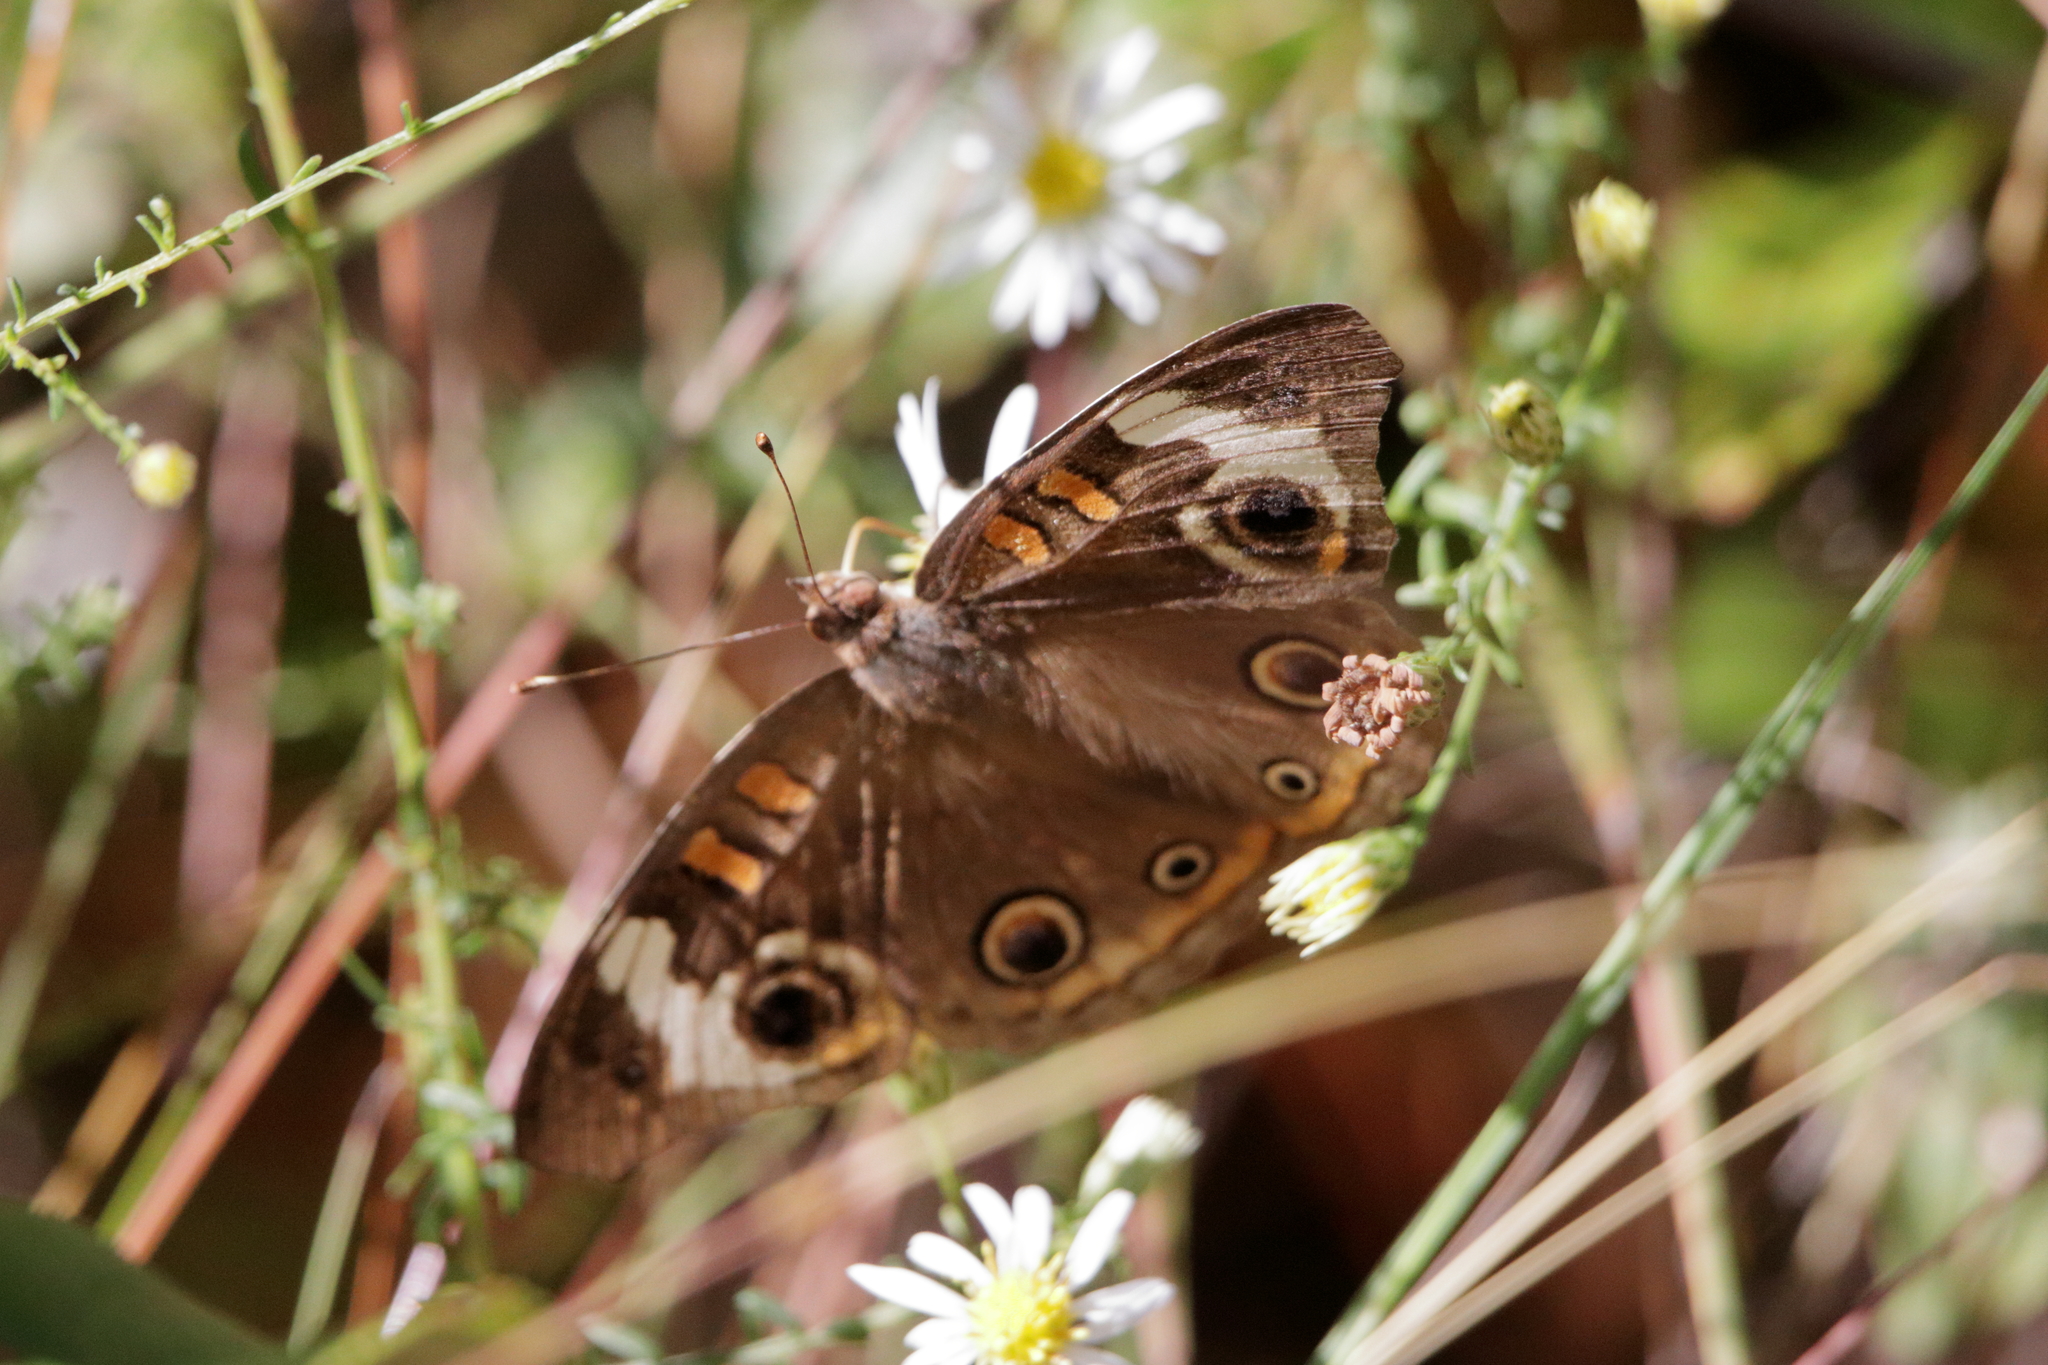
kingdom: Animalia
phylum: Arthropoda
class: Insecta
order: Lepidoptera
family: Nymphalidae
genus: Junonia
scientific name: Junonia coenia
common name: Common buckeye
